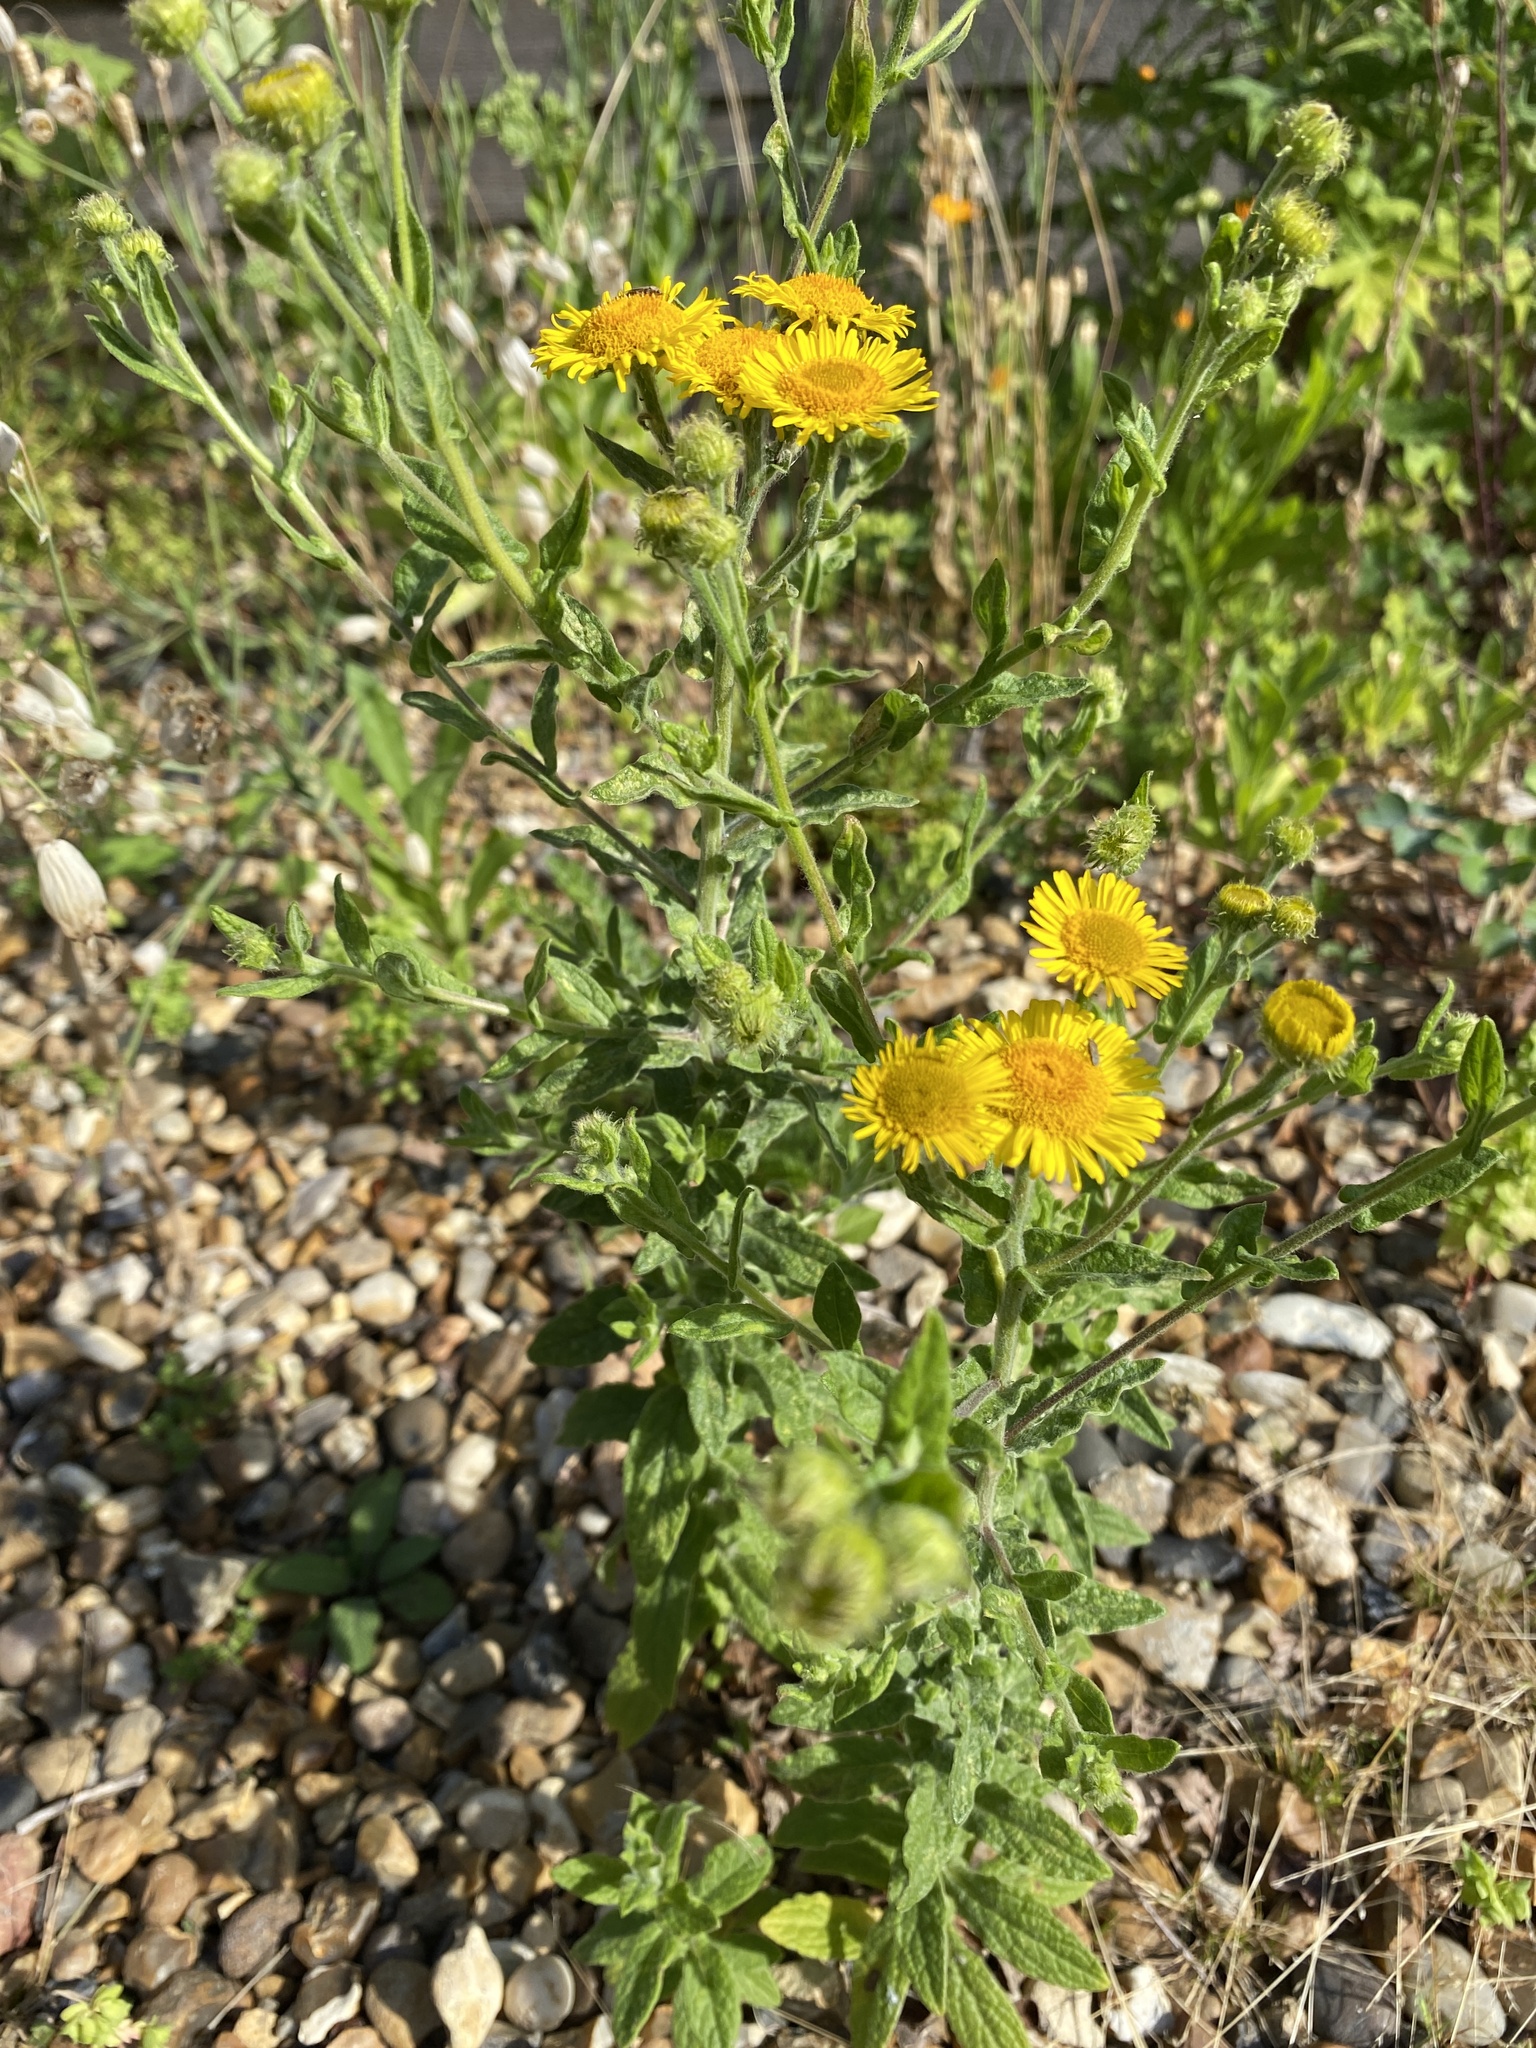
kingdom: Plantae
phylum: Tracheophyta
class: Magnoliopsida
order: Asterales
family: Asteraceae
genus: Pulicaria
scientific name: Pulicaria dysenterica
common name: Common fleabane
